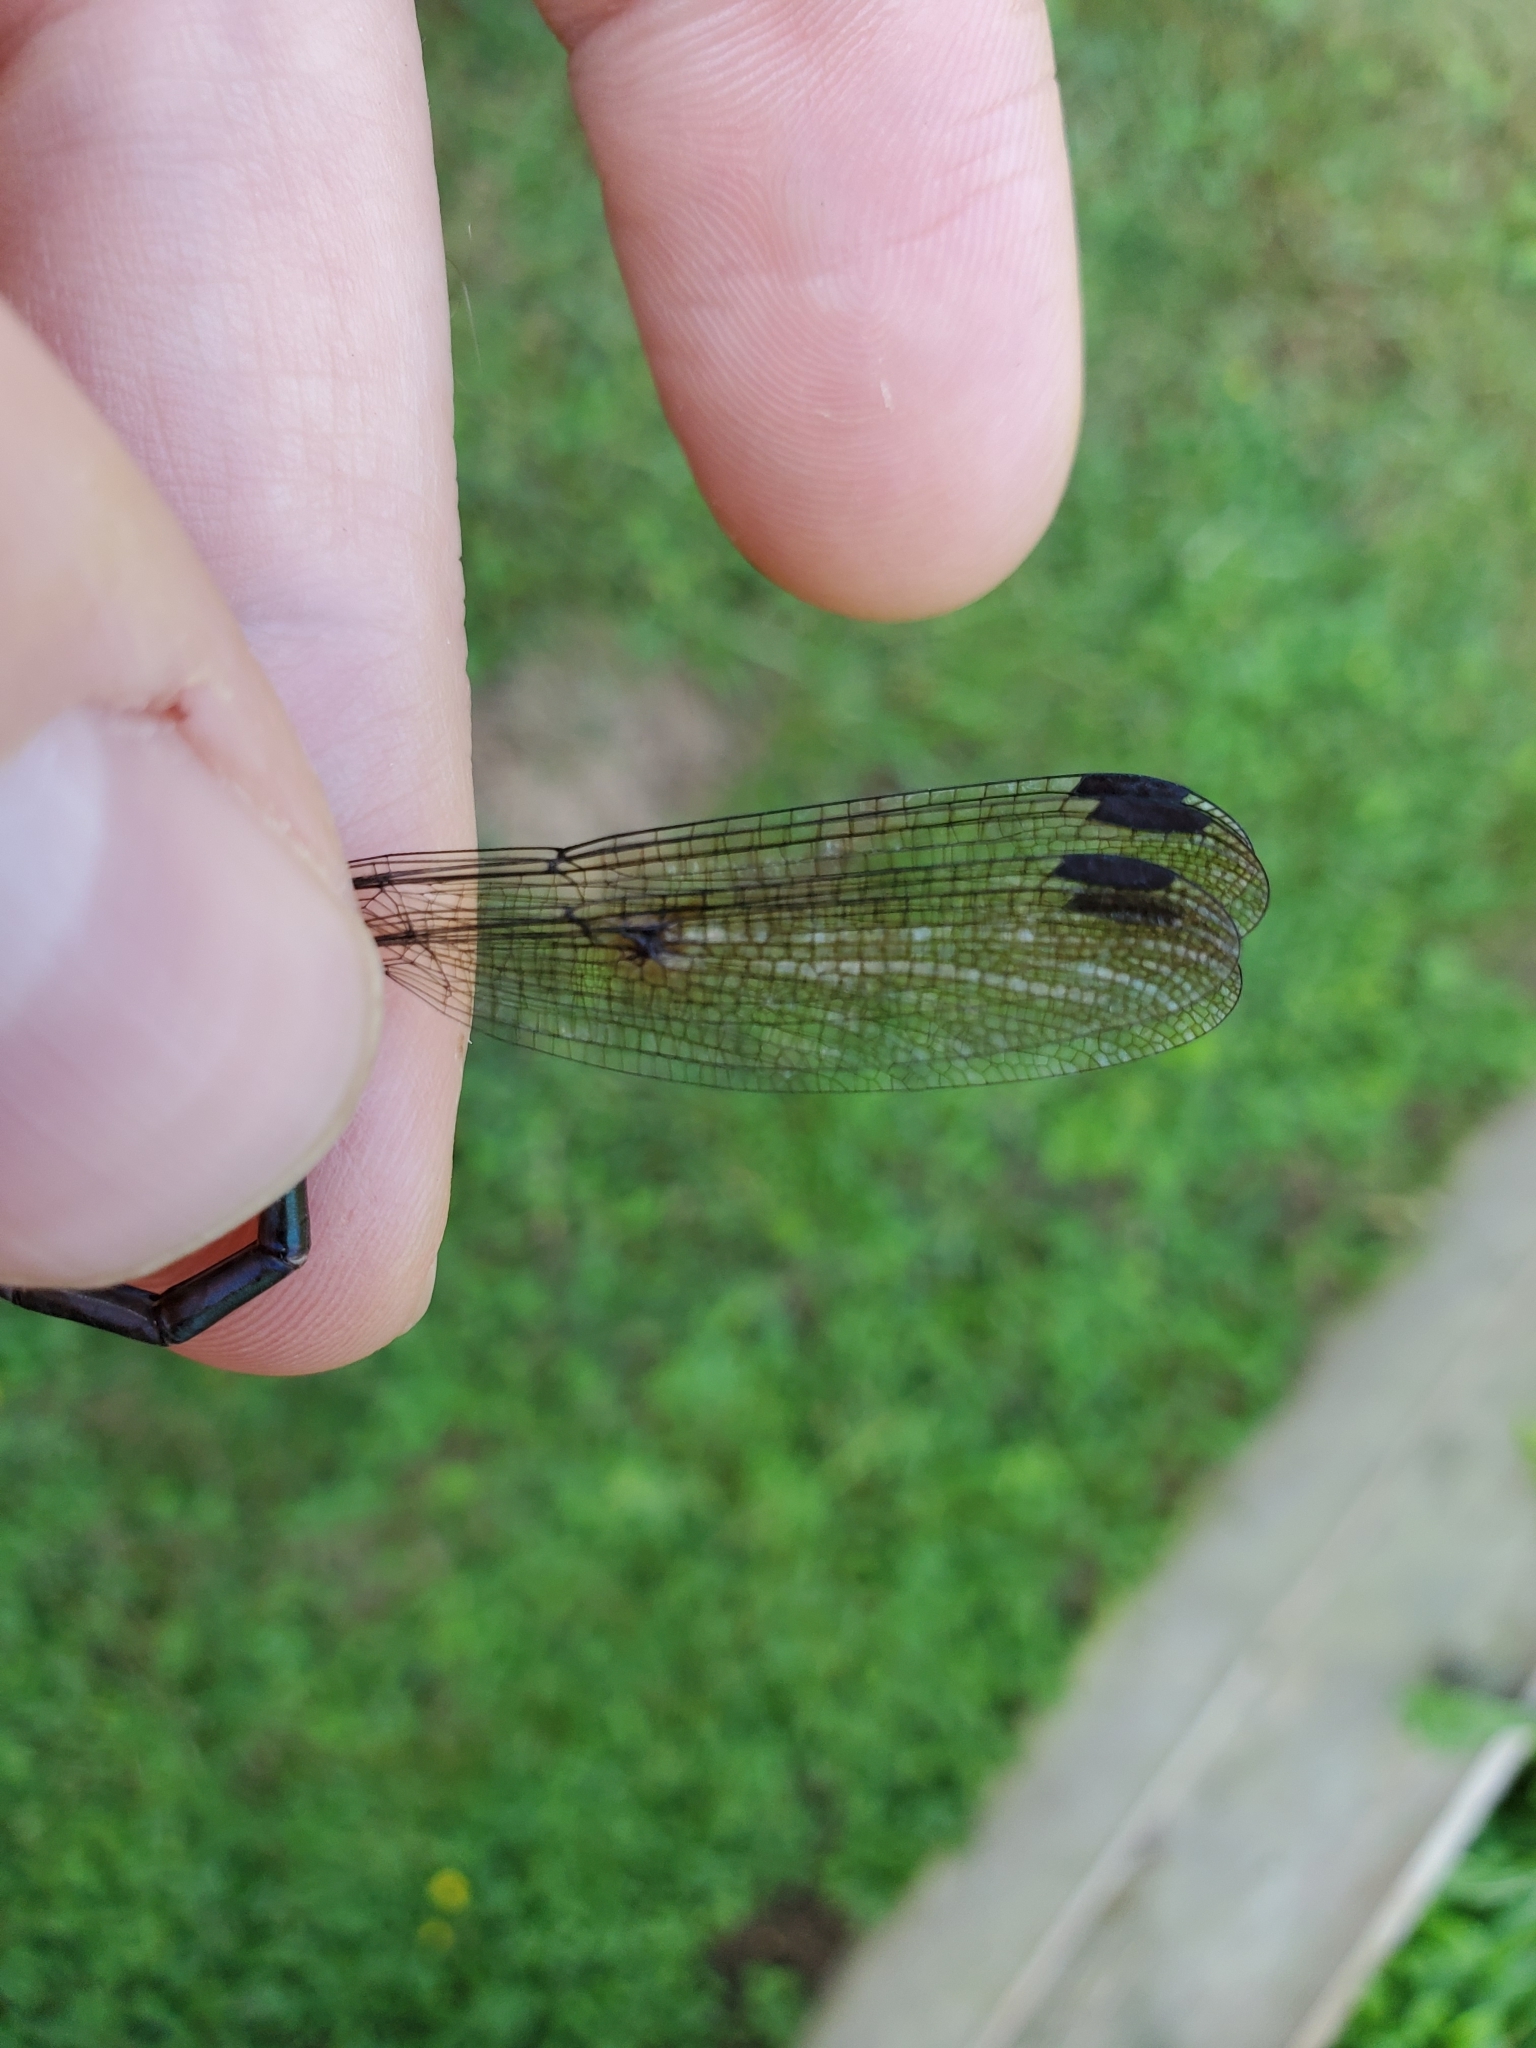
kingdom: Animalia
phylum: Arthropoda
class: Insecta
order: Odonata
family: Lestidae
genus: Archilestes
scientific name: Archilestes grandis
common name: Great spreadwing
